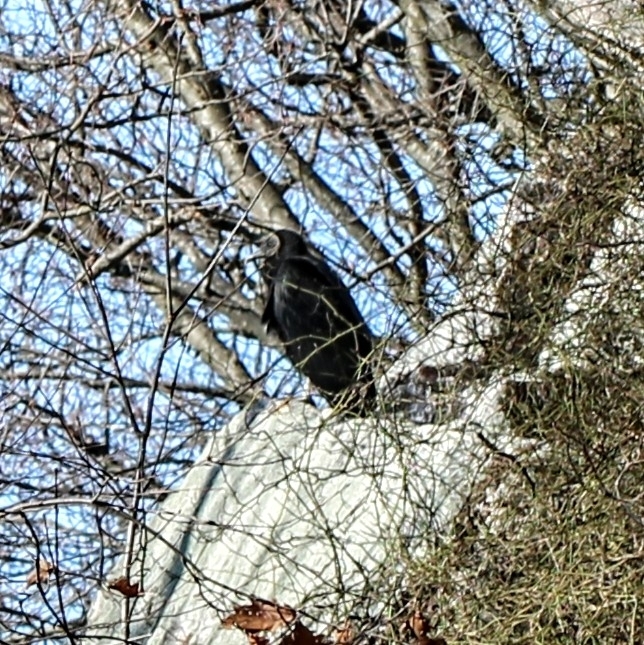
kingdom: Animalia
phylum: Chordata
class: Aves
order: Accipitriformes
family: Cathartidae
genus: Coragyps
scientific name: Coragyps atratus
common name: Black vulture
